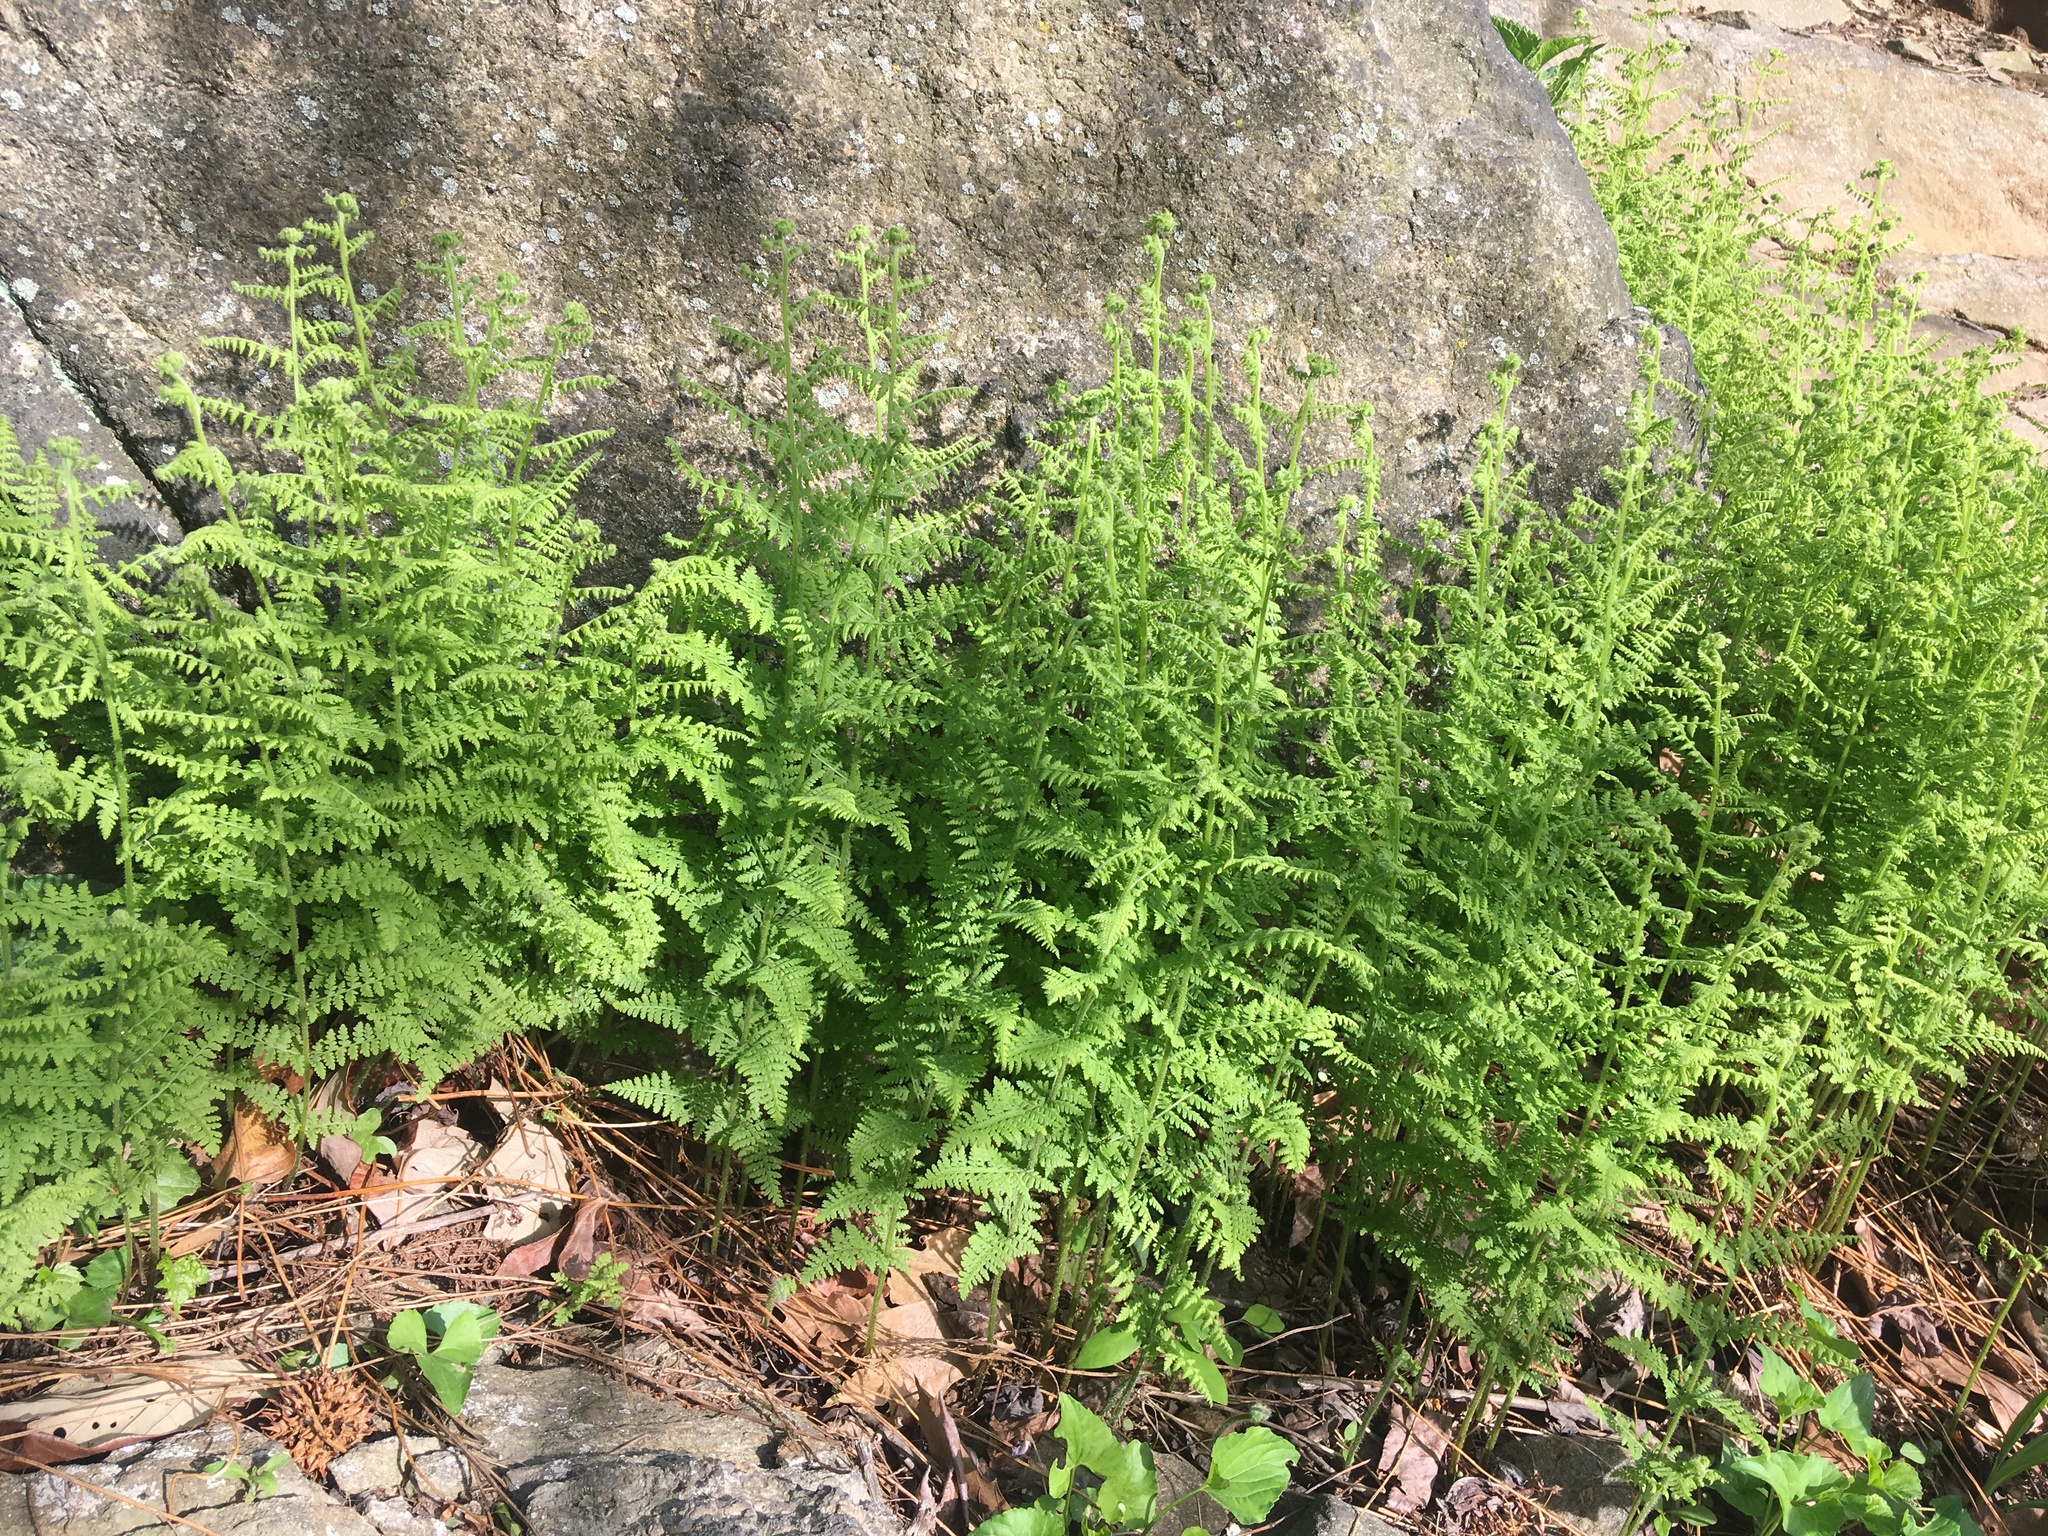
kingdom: Plantae
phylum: Tracheophyta
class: Polypodiopsida
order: Polypodiales
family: Dennstaedtiaceae
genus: Sitobolium
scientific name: Sitobolium punctilobum
